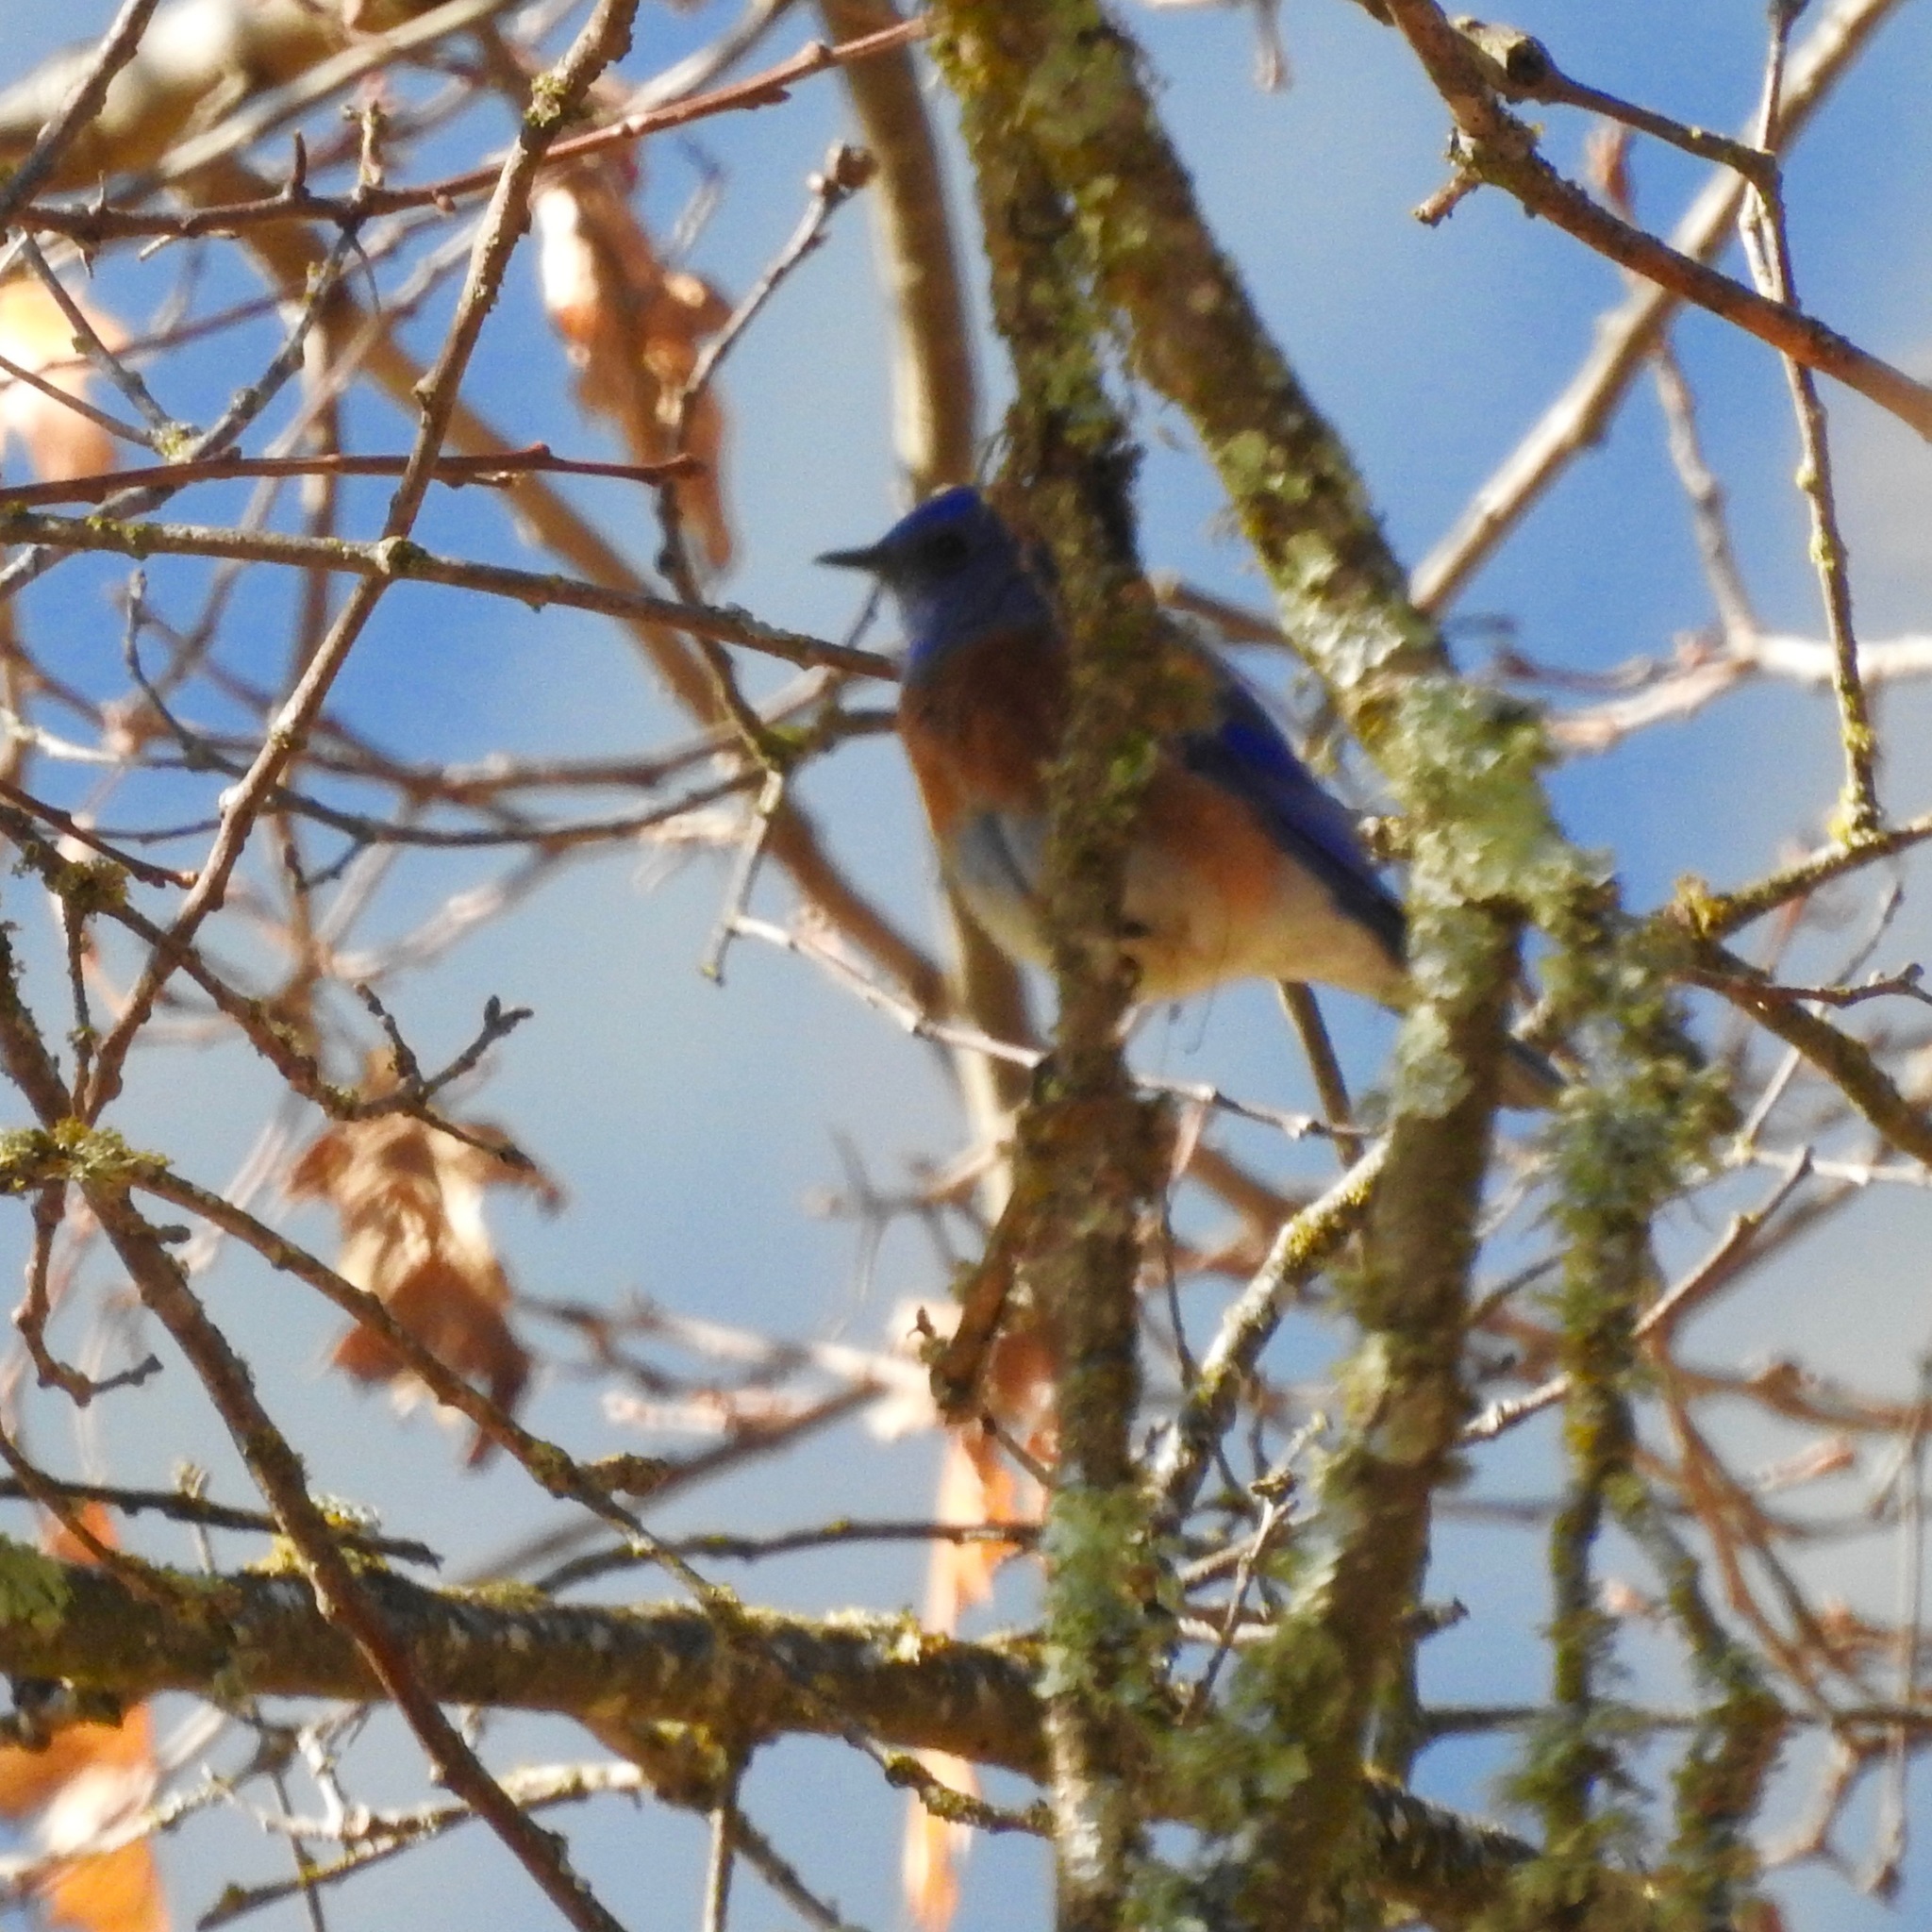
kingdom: Animalia
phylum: Chordata
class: Aves
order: Passeriformes
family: Turdidae
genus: Sialia
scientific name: Sialia mexicana
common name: Western bluebird
